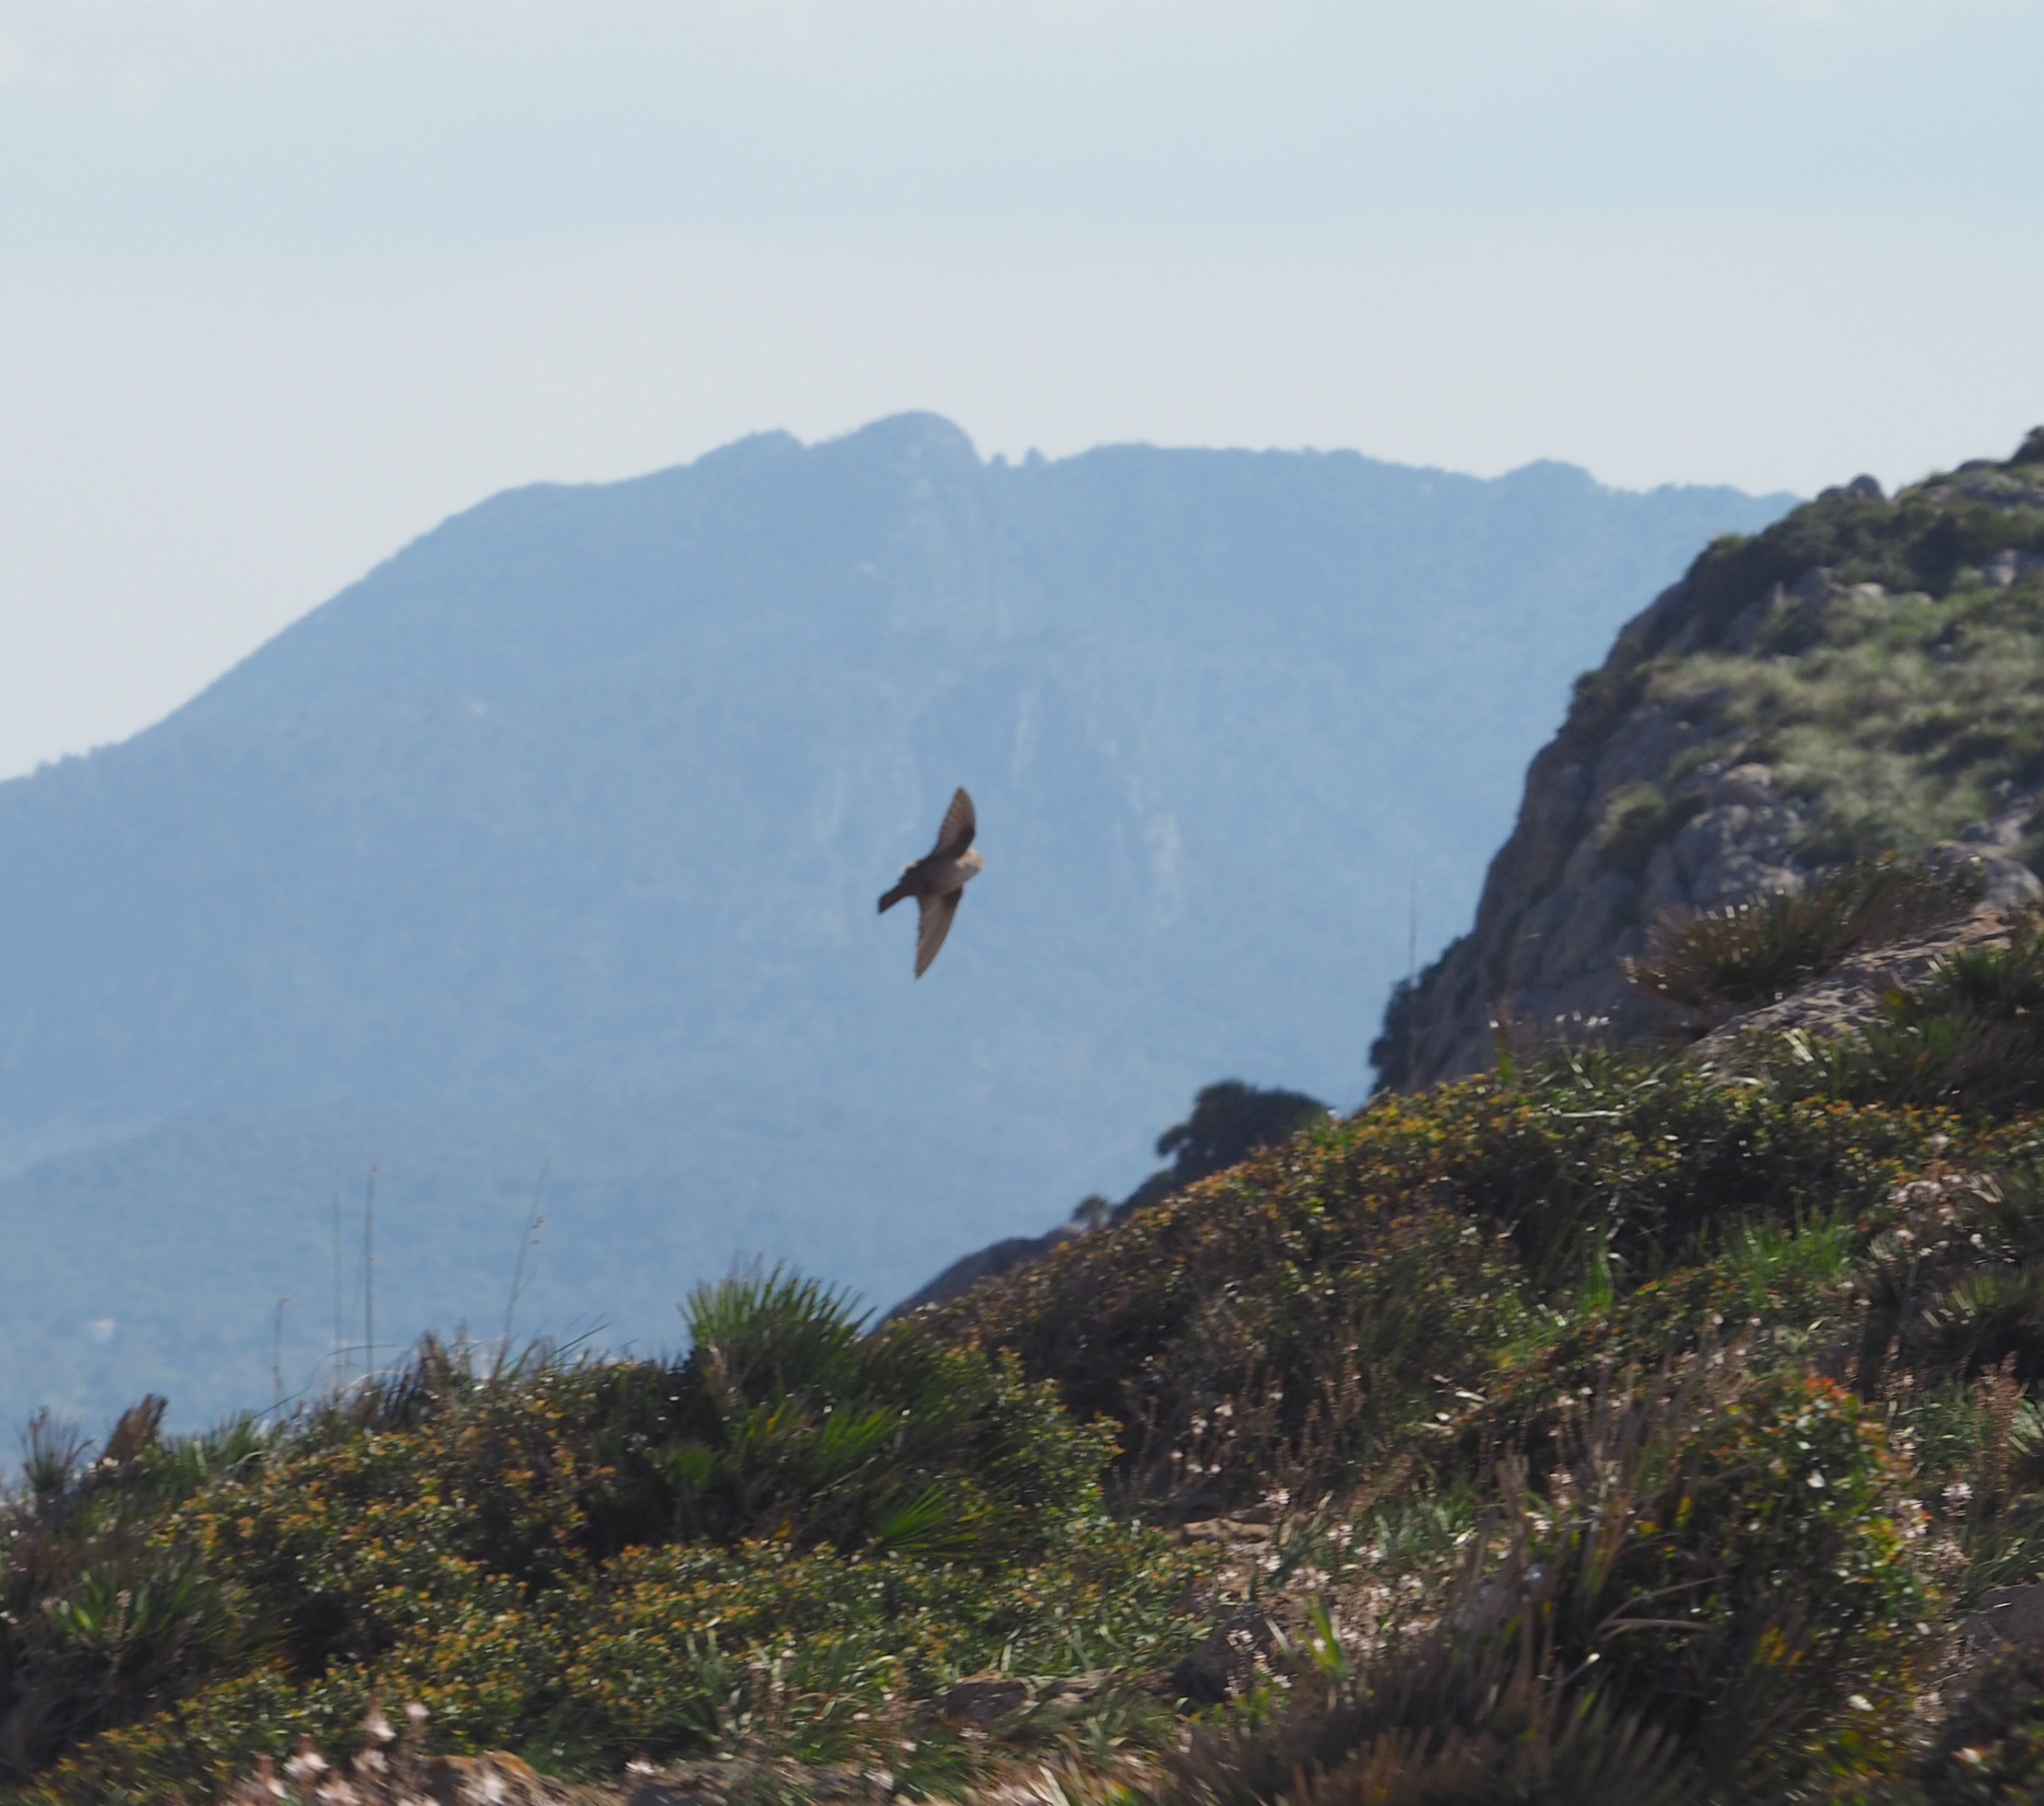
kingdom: Animalia
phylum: Chordata
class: Aves
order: Passeriformes
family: Hirundinidae
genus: Ptyonoprogne
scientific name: Ptyonoprogne rupestris
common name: Eurasian crag martin
